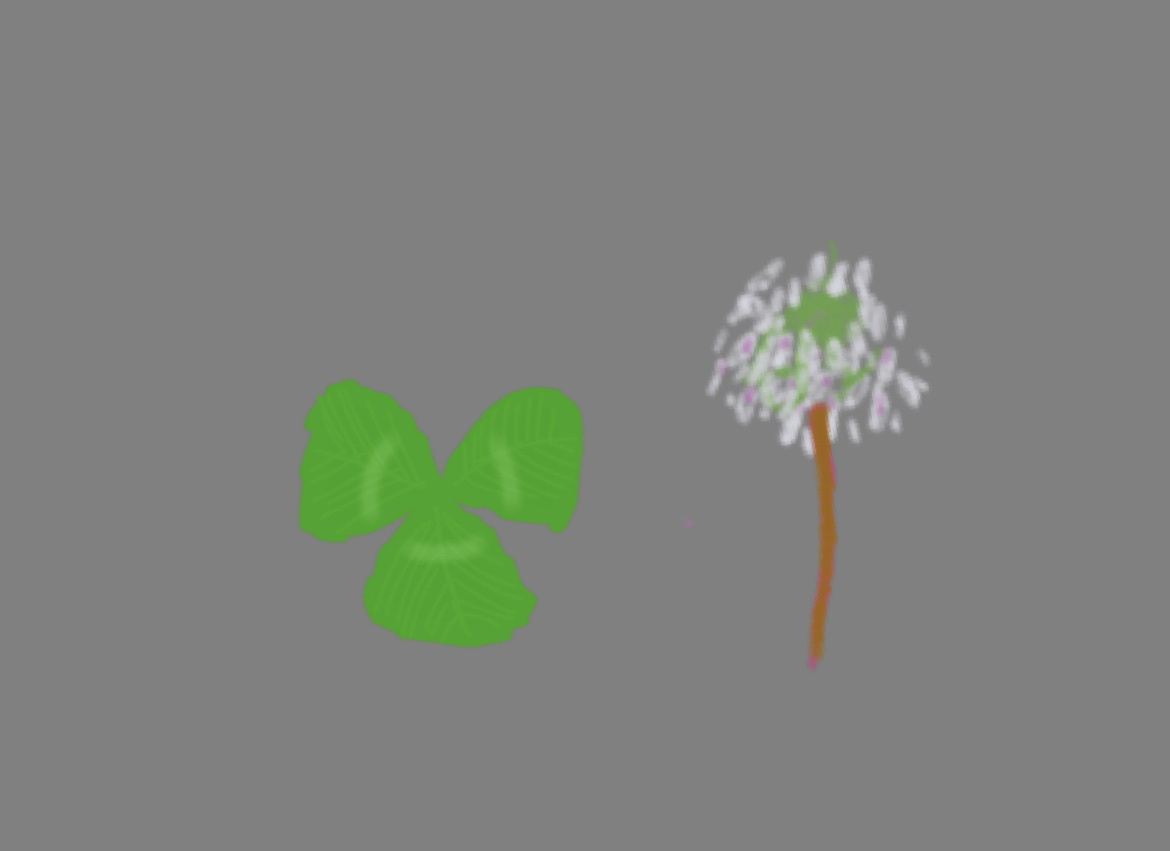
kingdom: Plantae
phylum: Tracheophyta
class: Magnoliopsida
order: Fabales
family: Fabaceae
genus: Trifolium
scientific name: Trifolium repens
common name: White clover
